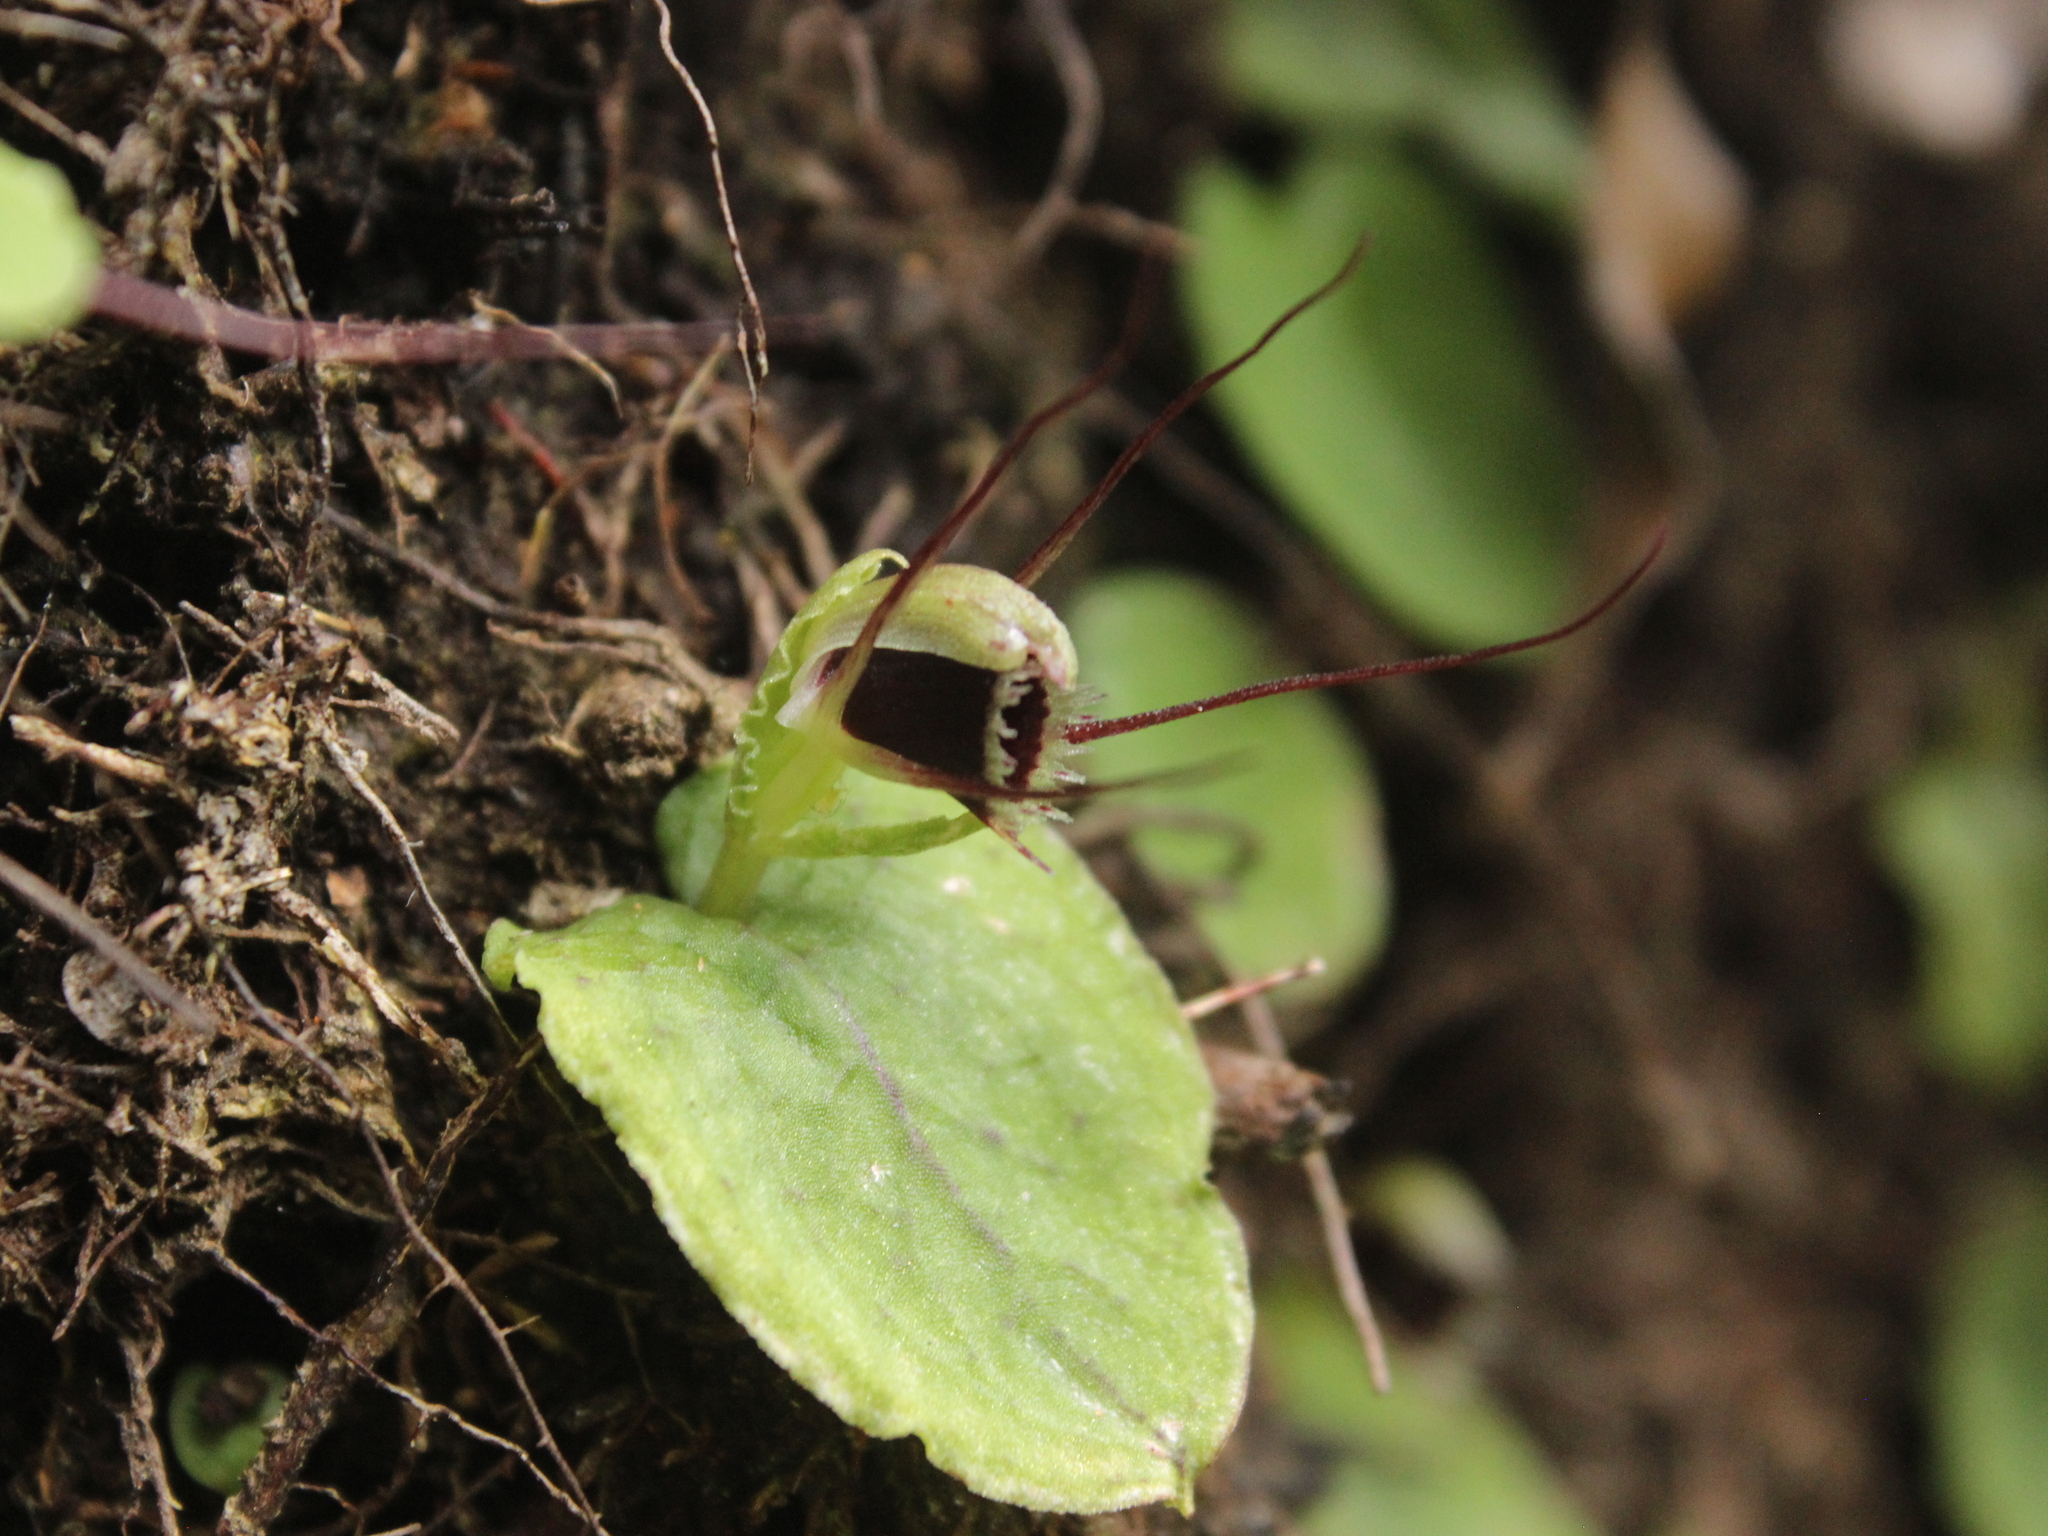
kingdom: Plantae
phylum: Tracheophyta
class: Liliopsida
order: Asparagales
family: Orchidaceae
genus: Corybas
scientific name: Corybas oblongus
